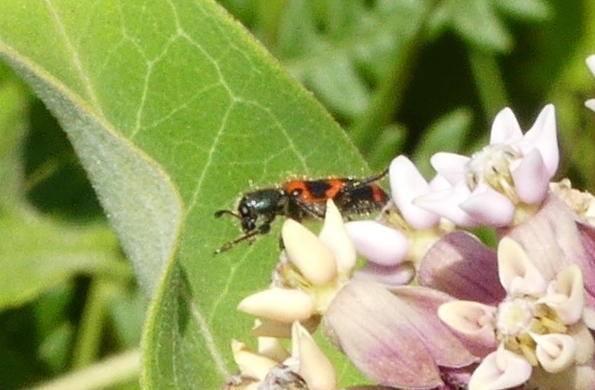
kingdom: Animalia
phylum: Arthropoda
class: Insecta
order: Coleoptera
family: Cleridae
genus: Trichodes
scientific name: Trichodes nutalli
